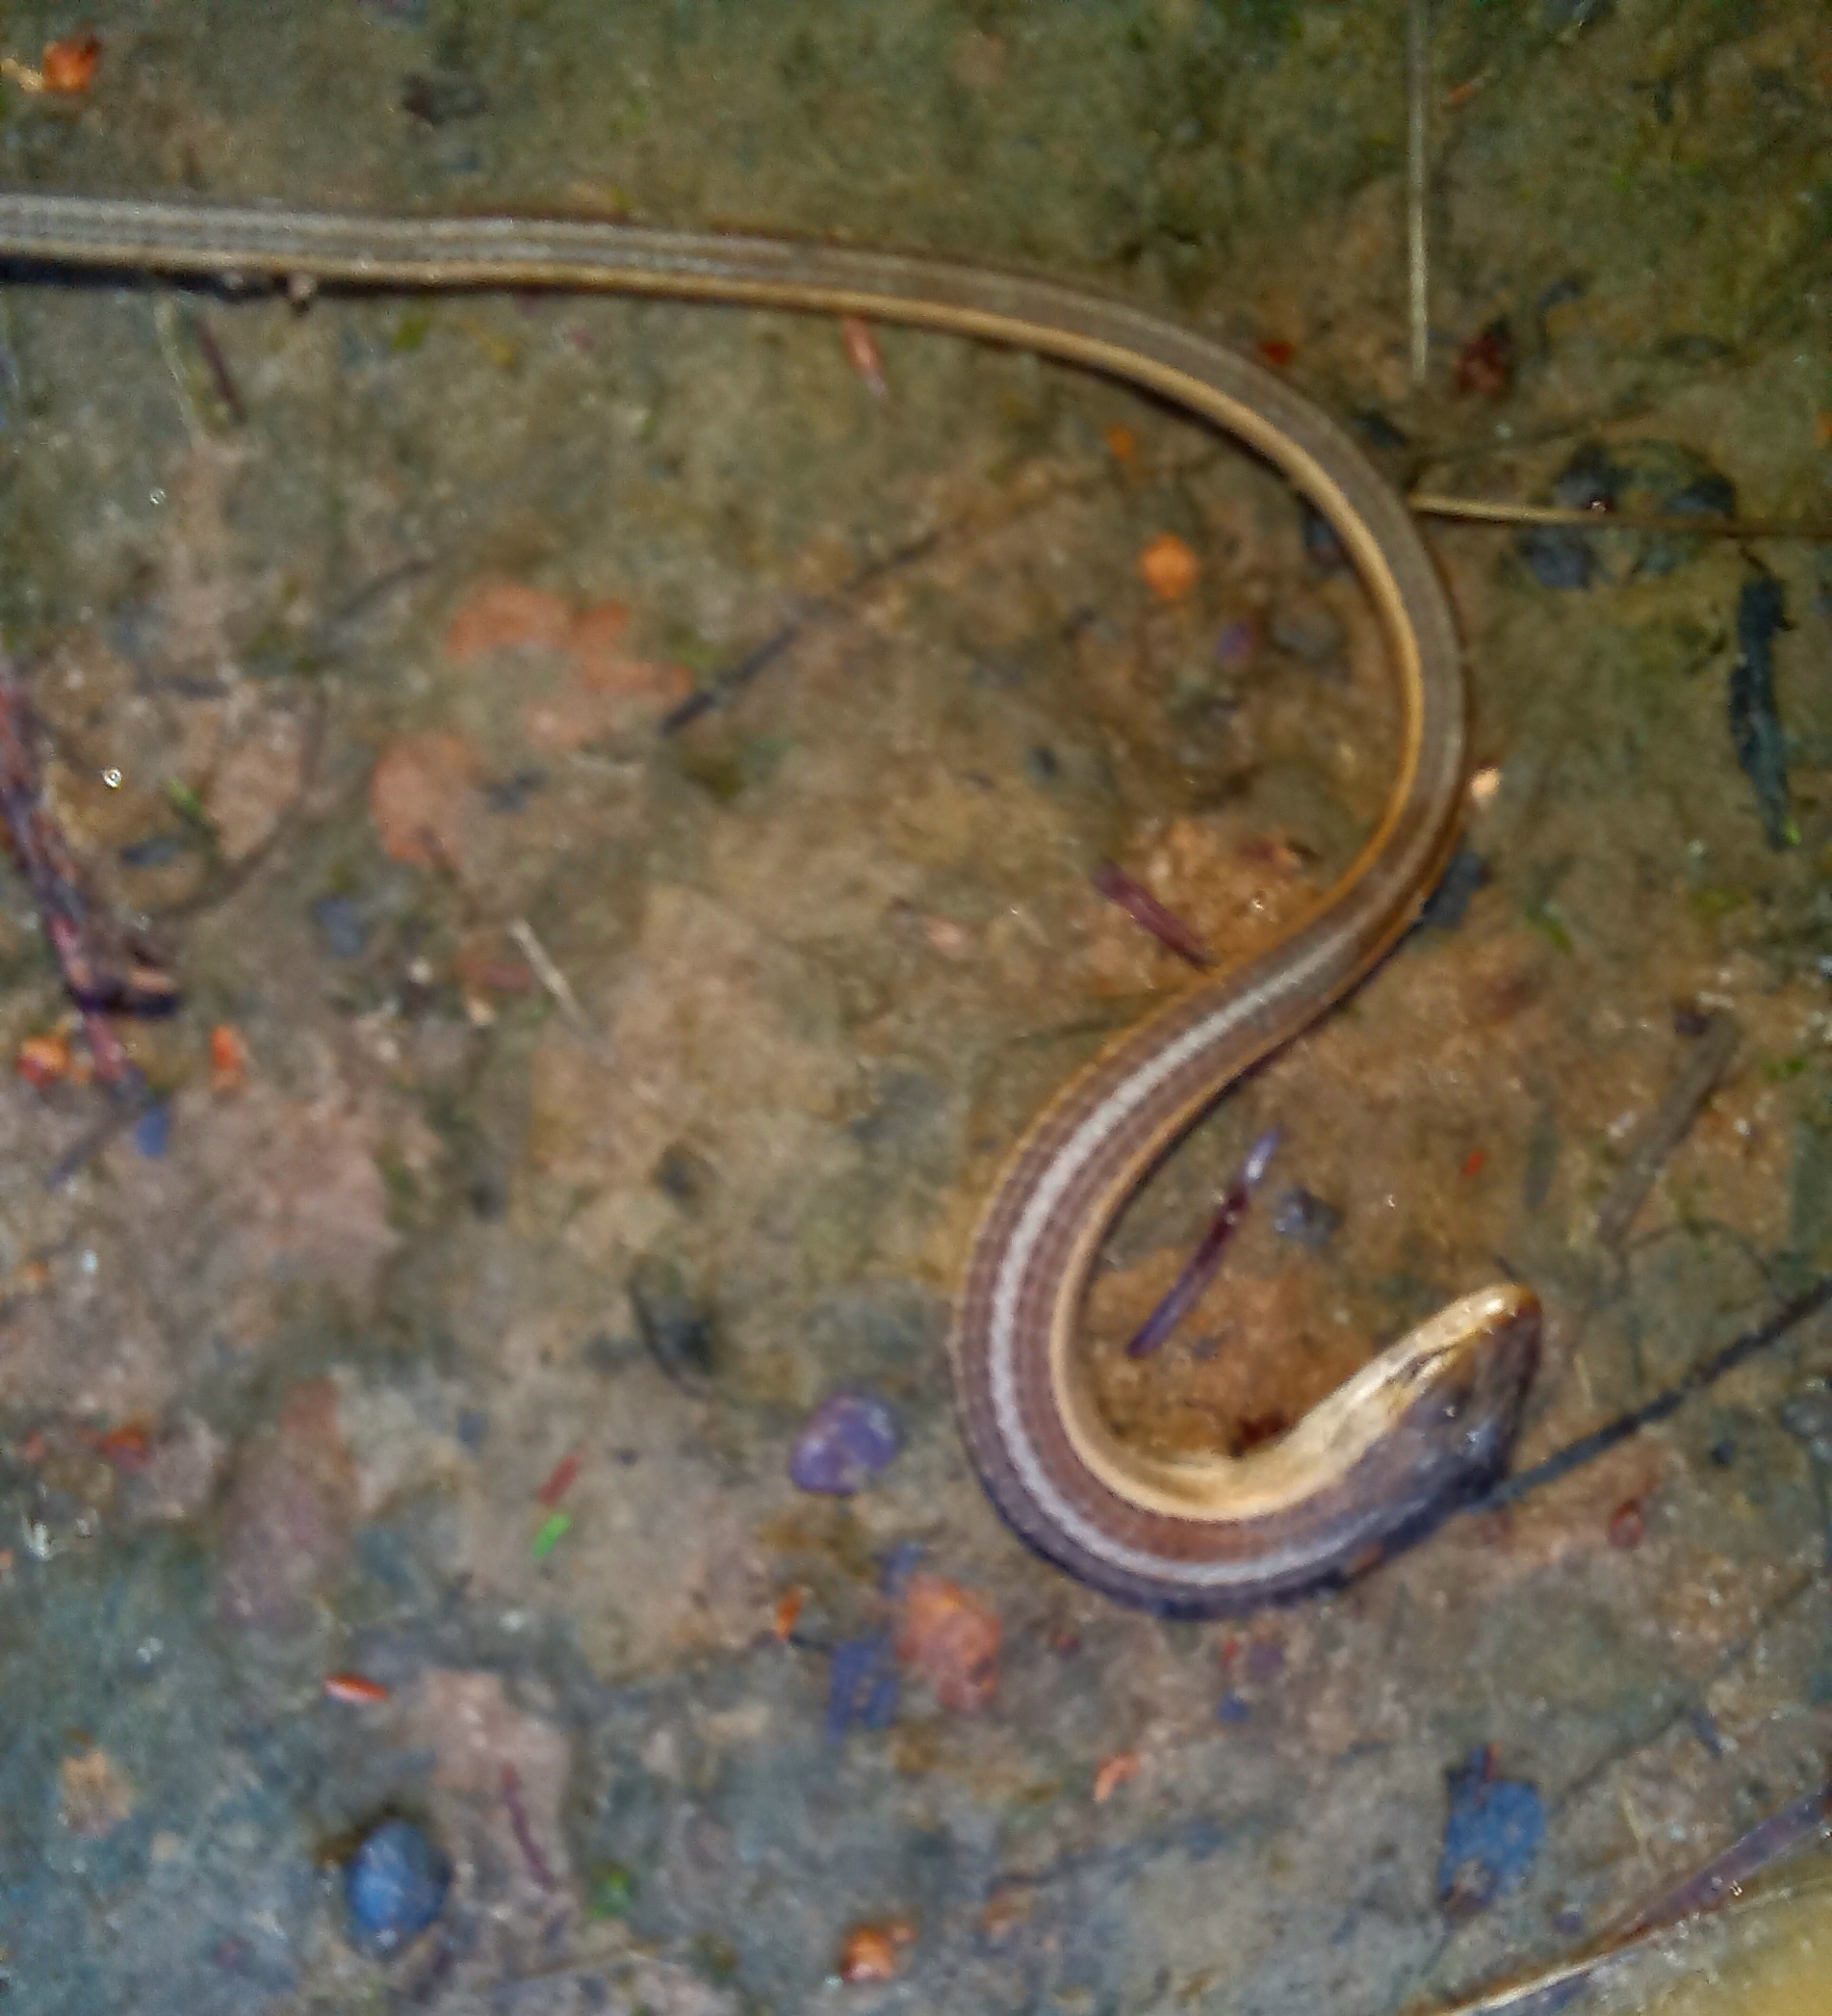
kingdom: Animalia
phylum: Chordata
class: Squamata
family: Cordylidae
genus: Chamaesaura
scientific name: Chamaesaura anguina
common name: Cape snake lizard
